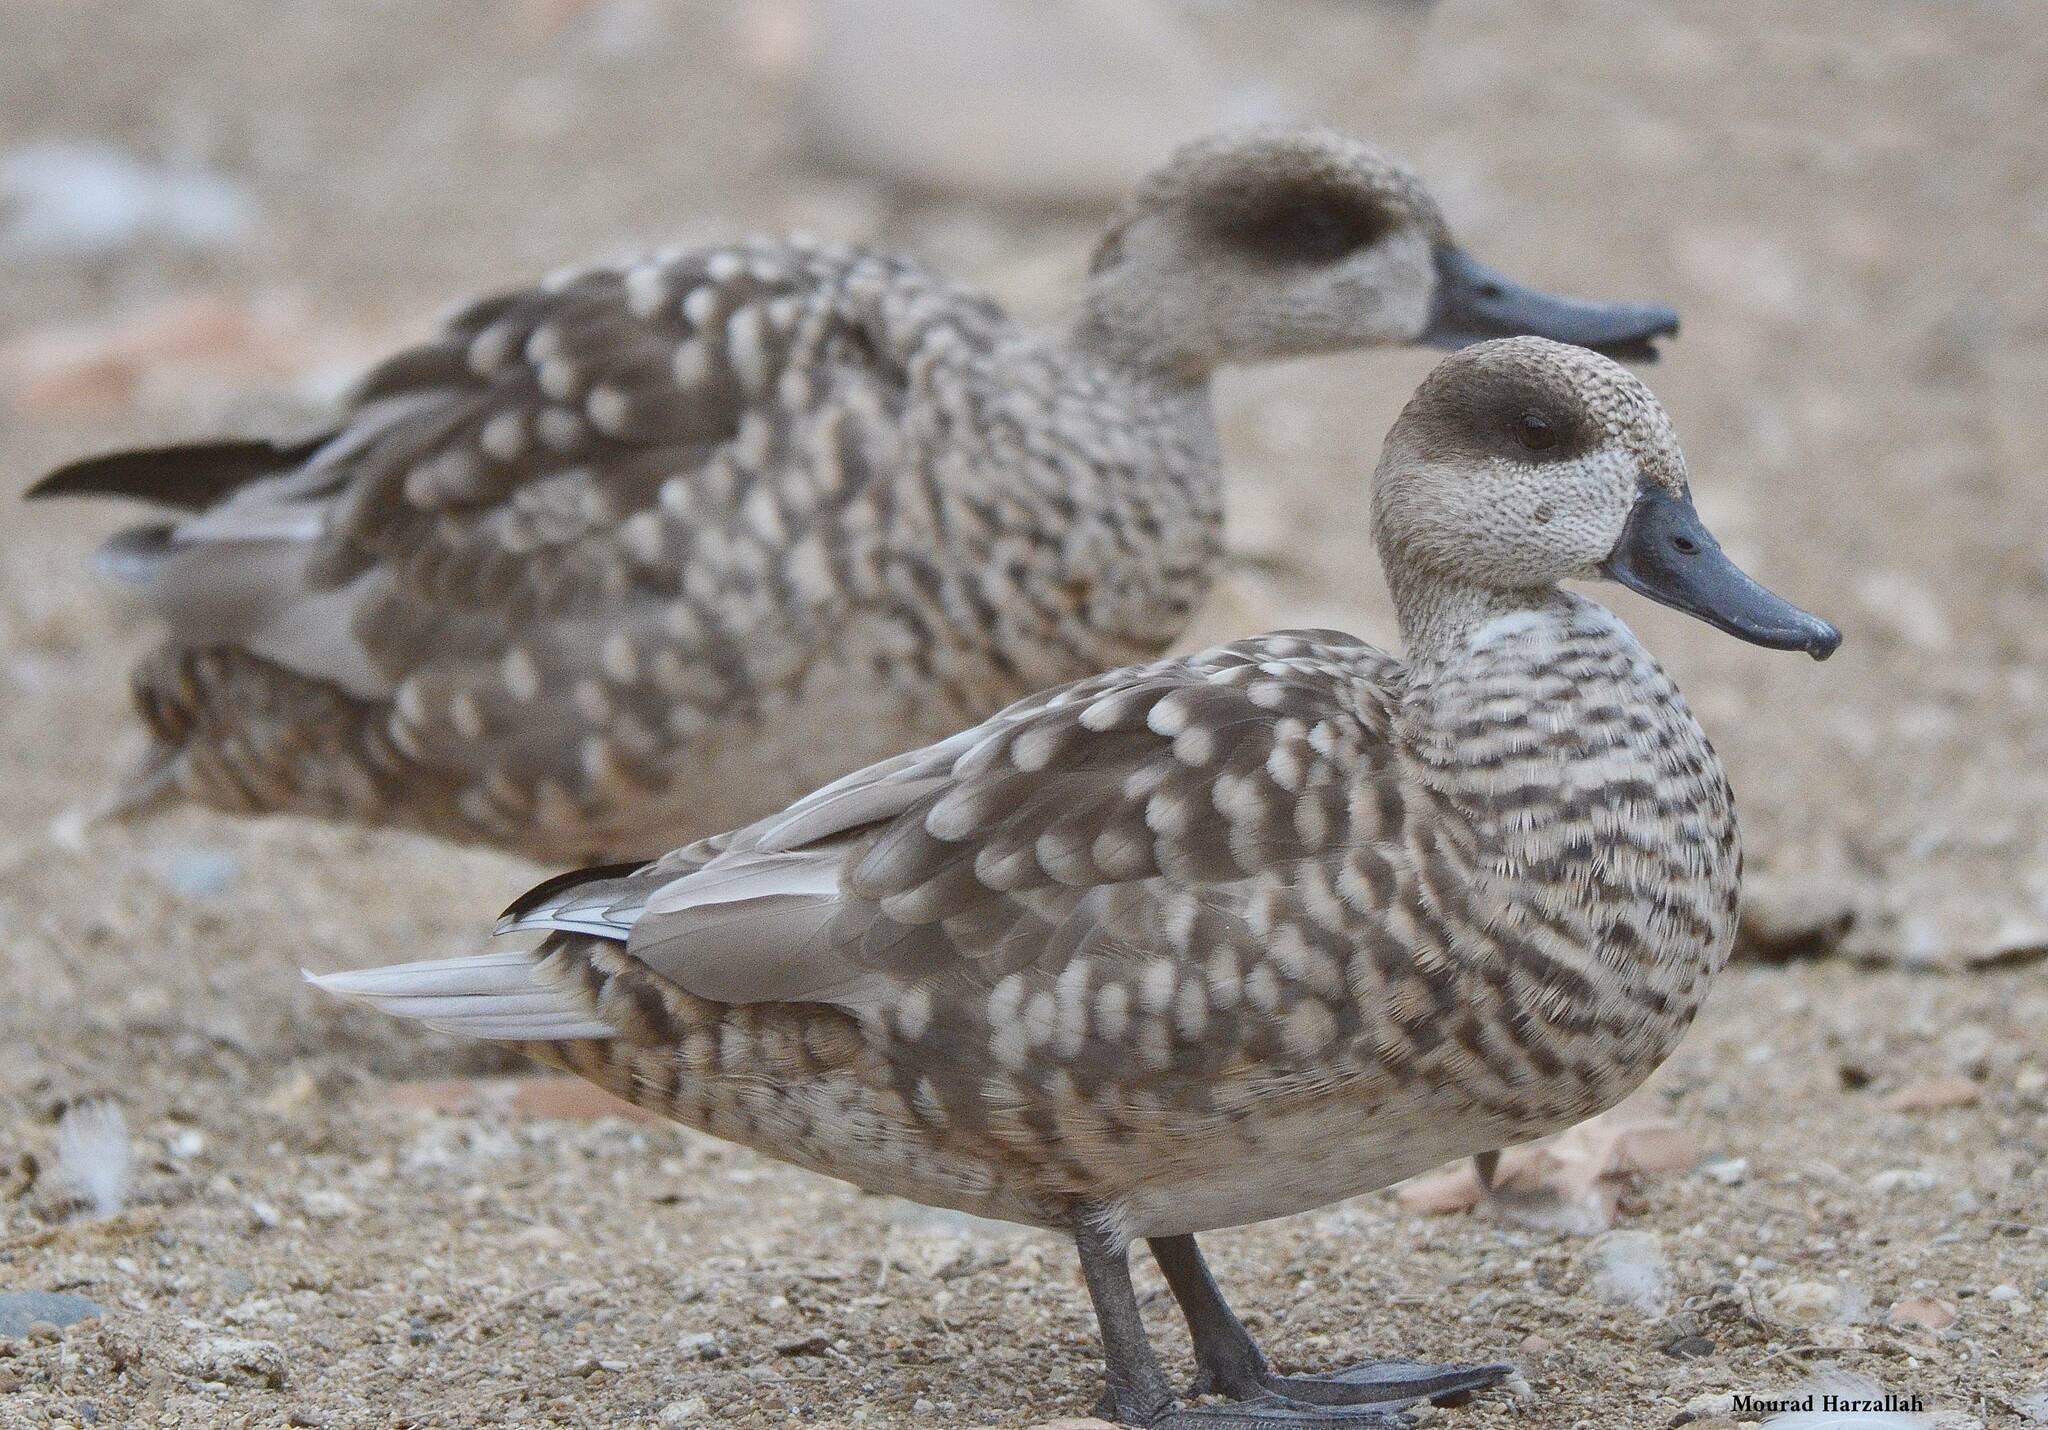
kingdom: Animalia
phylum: Chordata
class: Aves
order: Anseriformes
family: Anatidae
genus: Marmaronetta
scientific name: Marmaronetta angustirostris
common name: Marbled duck
